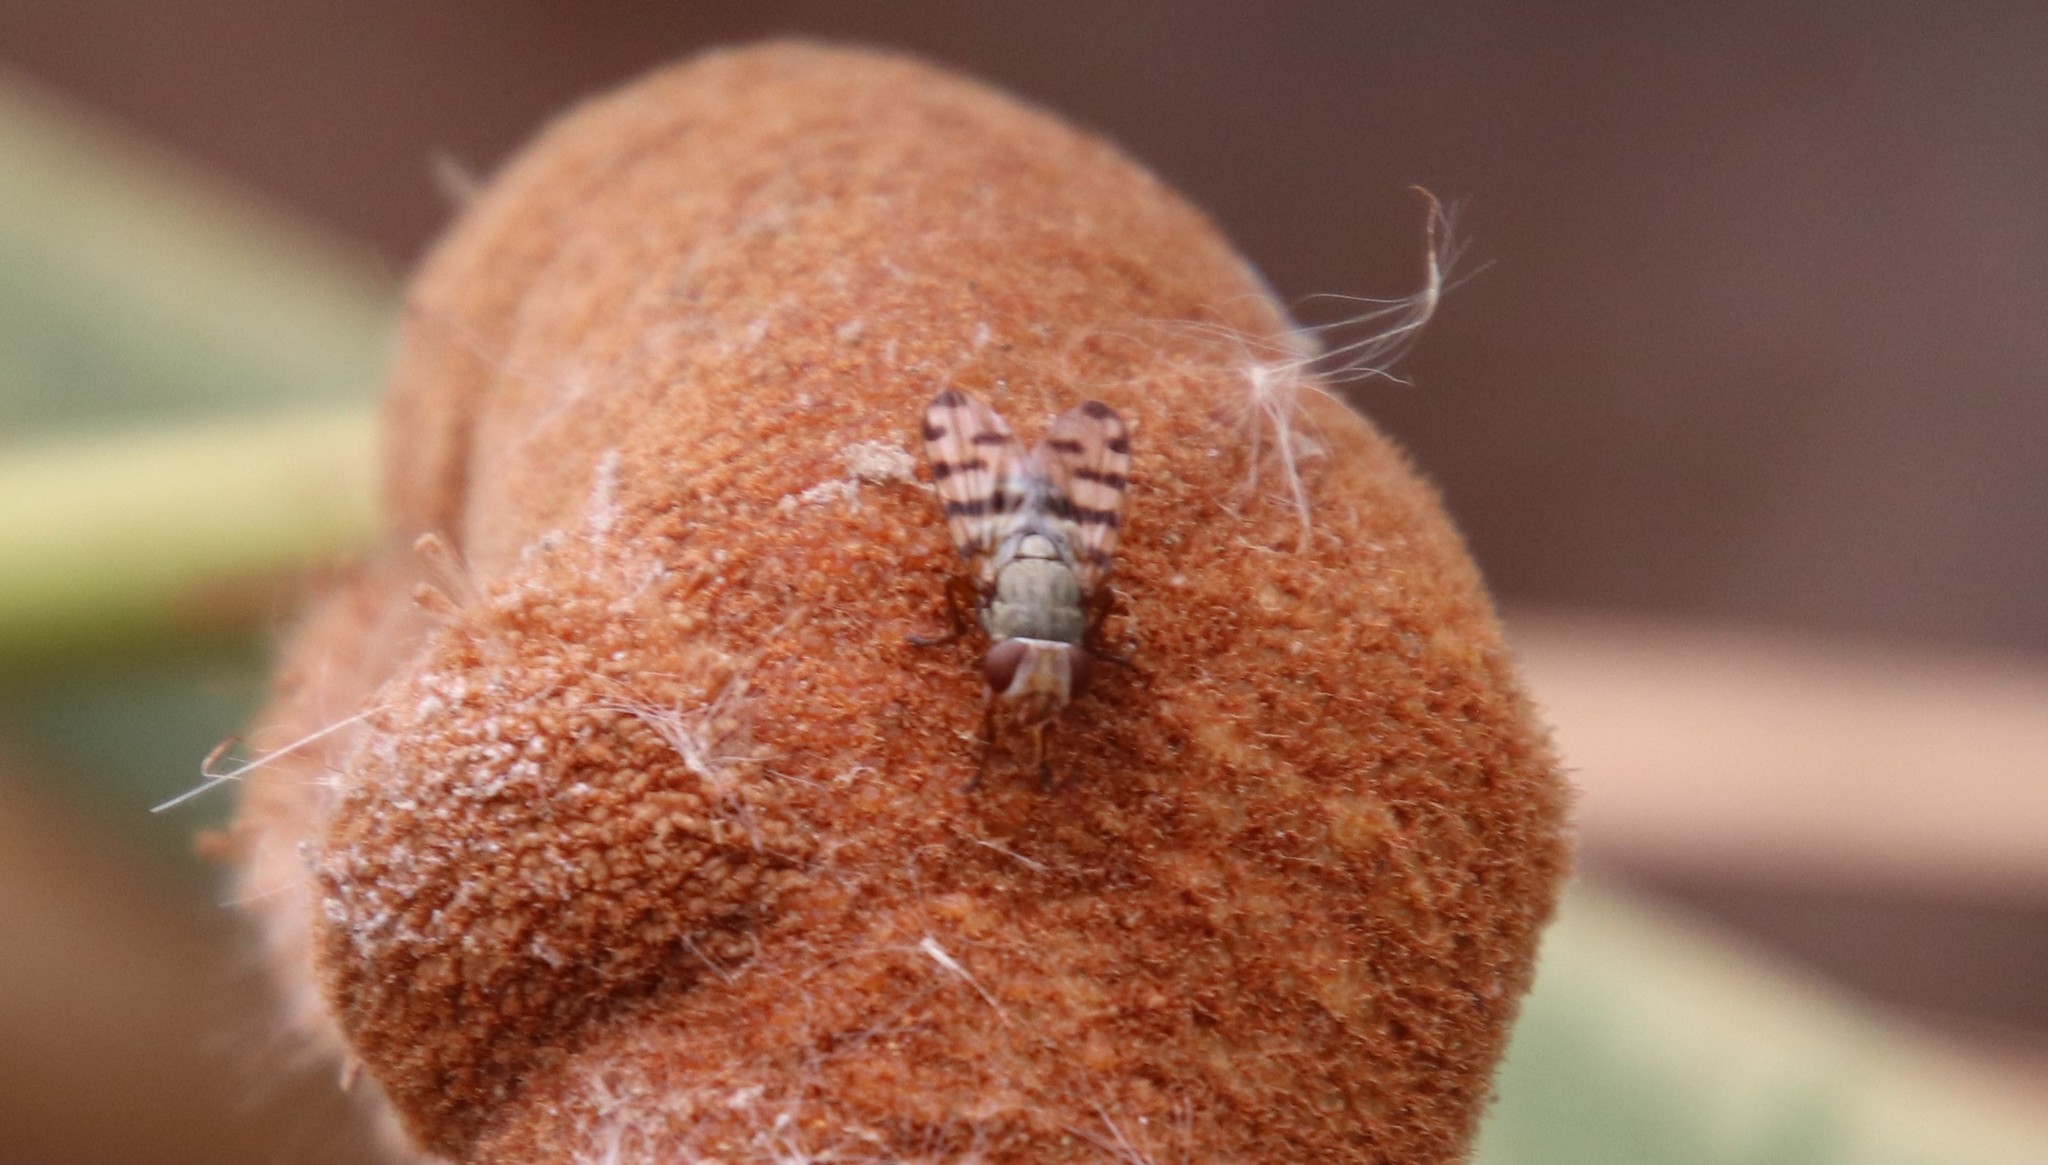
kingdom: Animalia
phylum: Arthropoda
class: Insecta
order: Diptera
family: Ulidiidae
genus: Ceroxys
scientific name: Ceroxys latiusculus
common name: Picture-winged fly
